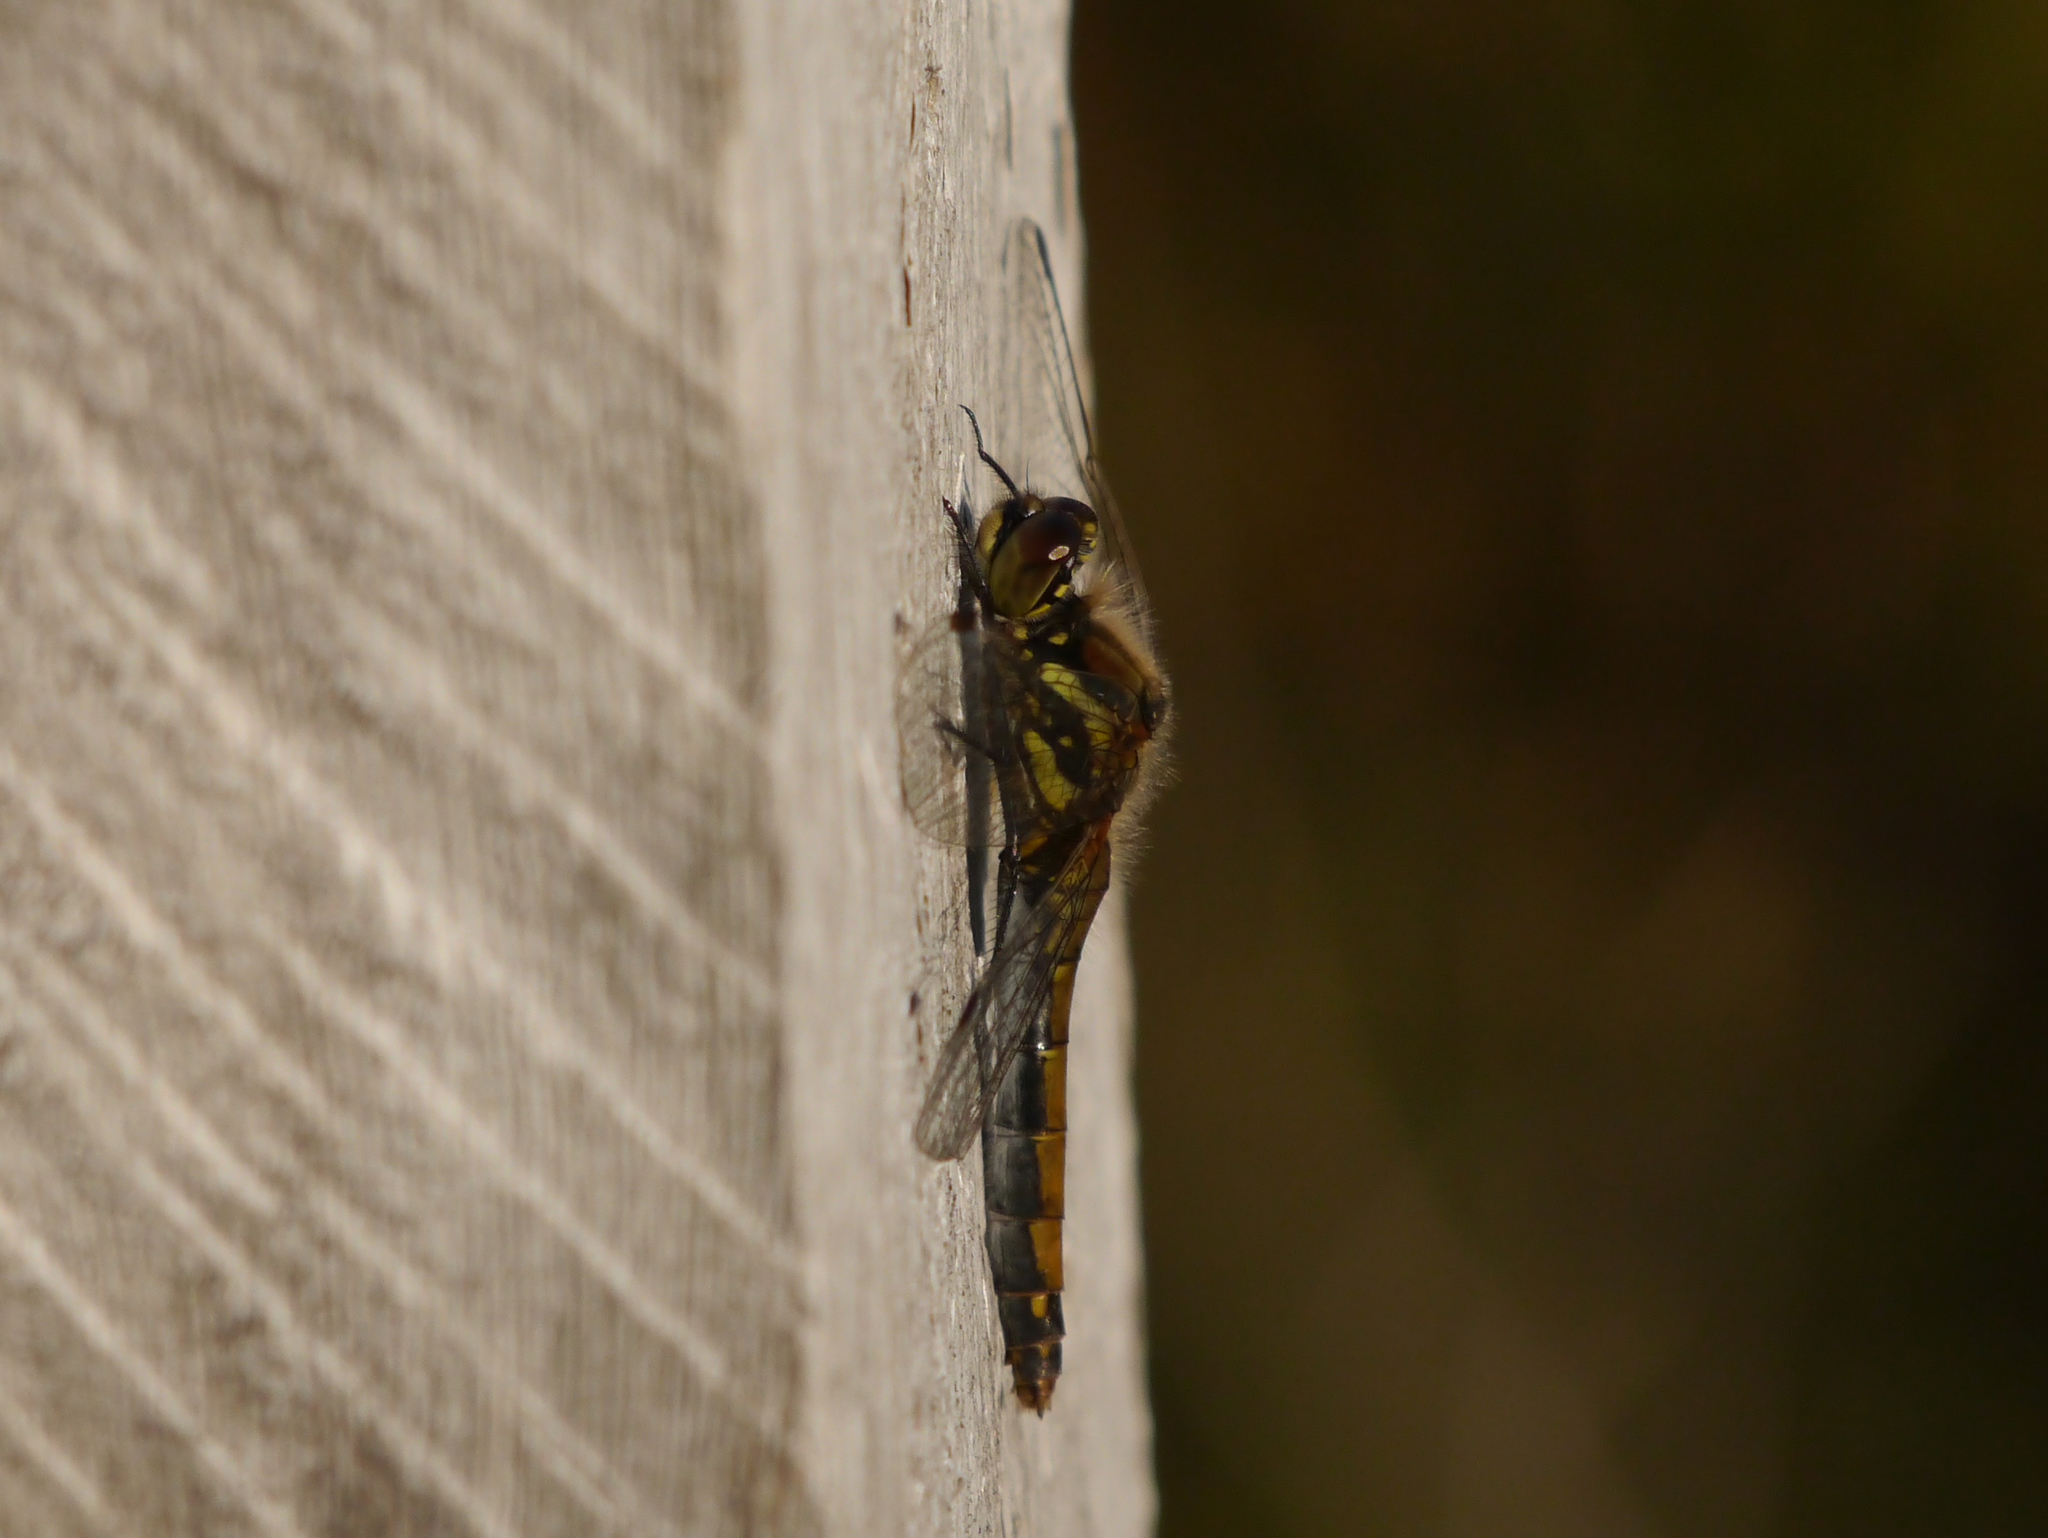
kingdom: Animalia
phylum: Arthropoda
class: Insecta
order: Odonata
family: Libellulidae
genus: Sympetrum
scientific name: Sympetrum danae
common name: Black darter
